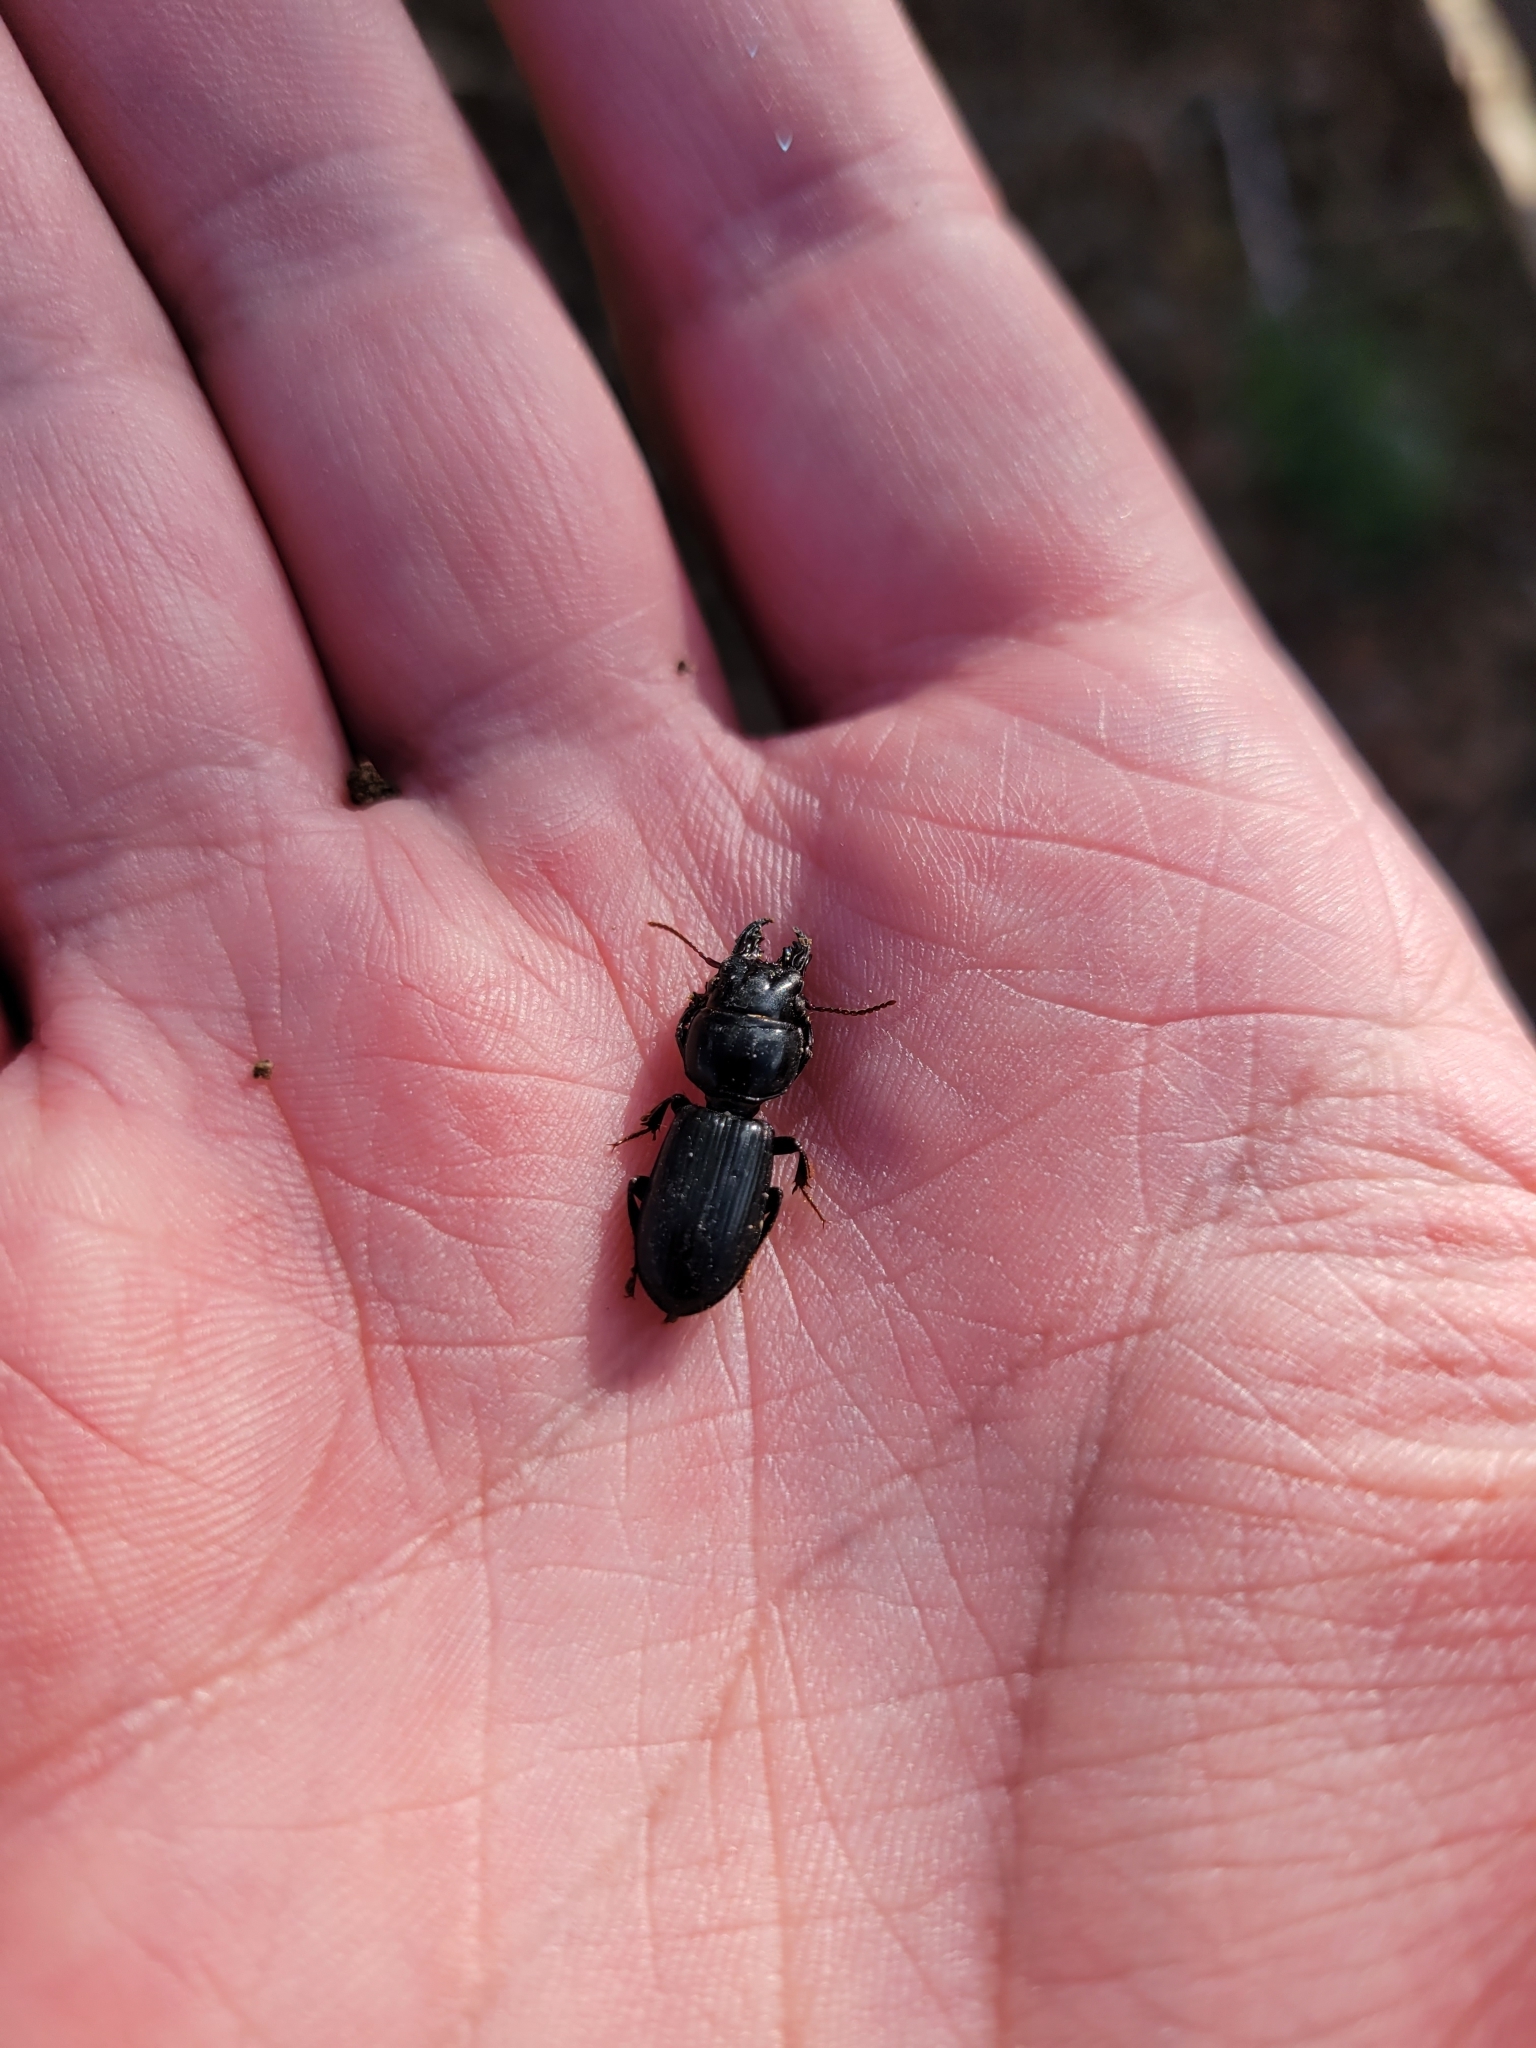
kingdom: Animalia
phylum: Arthropoda
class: Insecta
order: Coleoptera
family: Carabidae
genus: Scarites
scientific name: Scarites subterraneus
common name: Big-headed ground beetle
